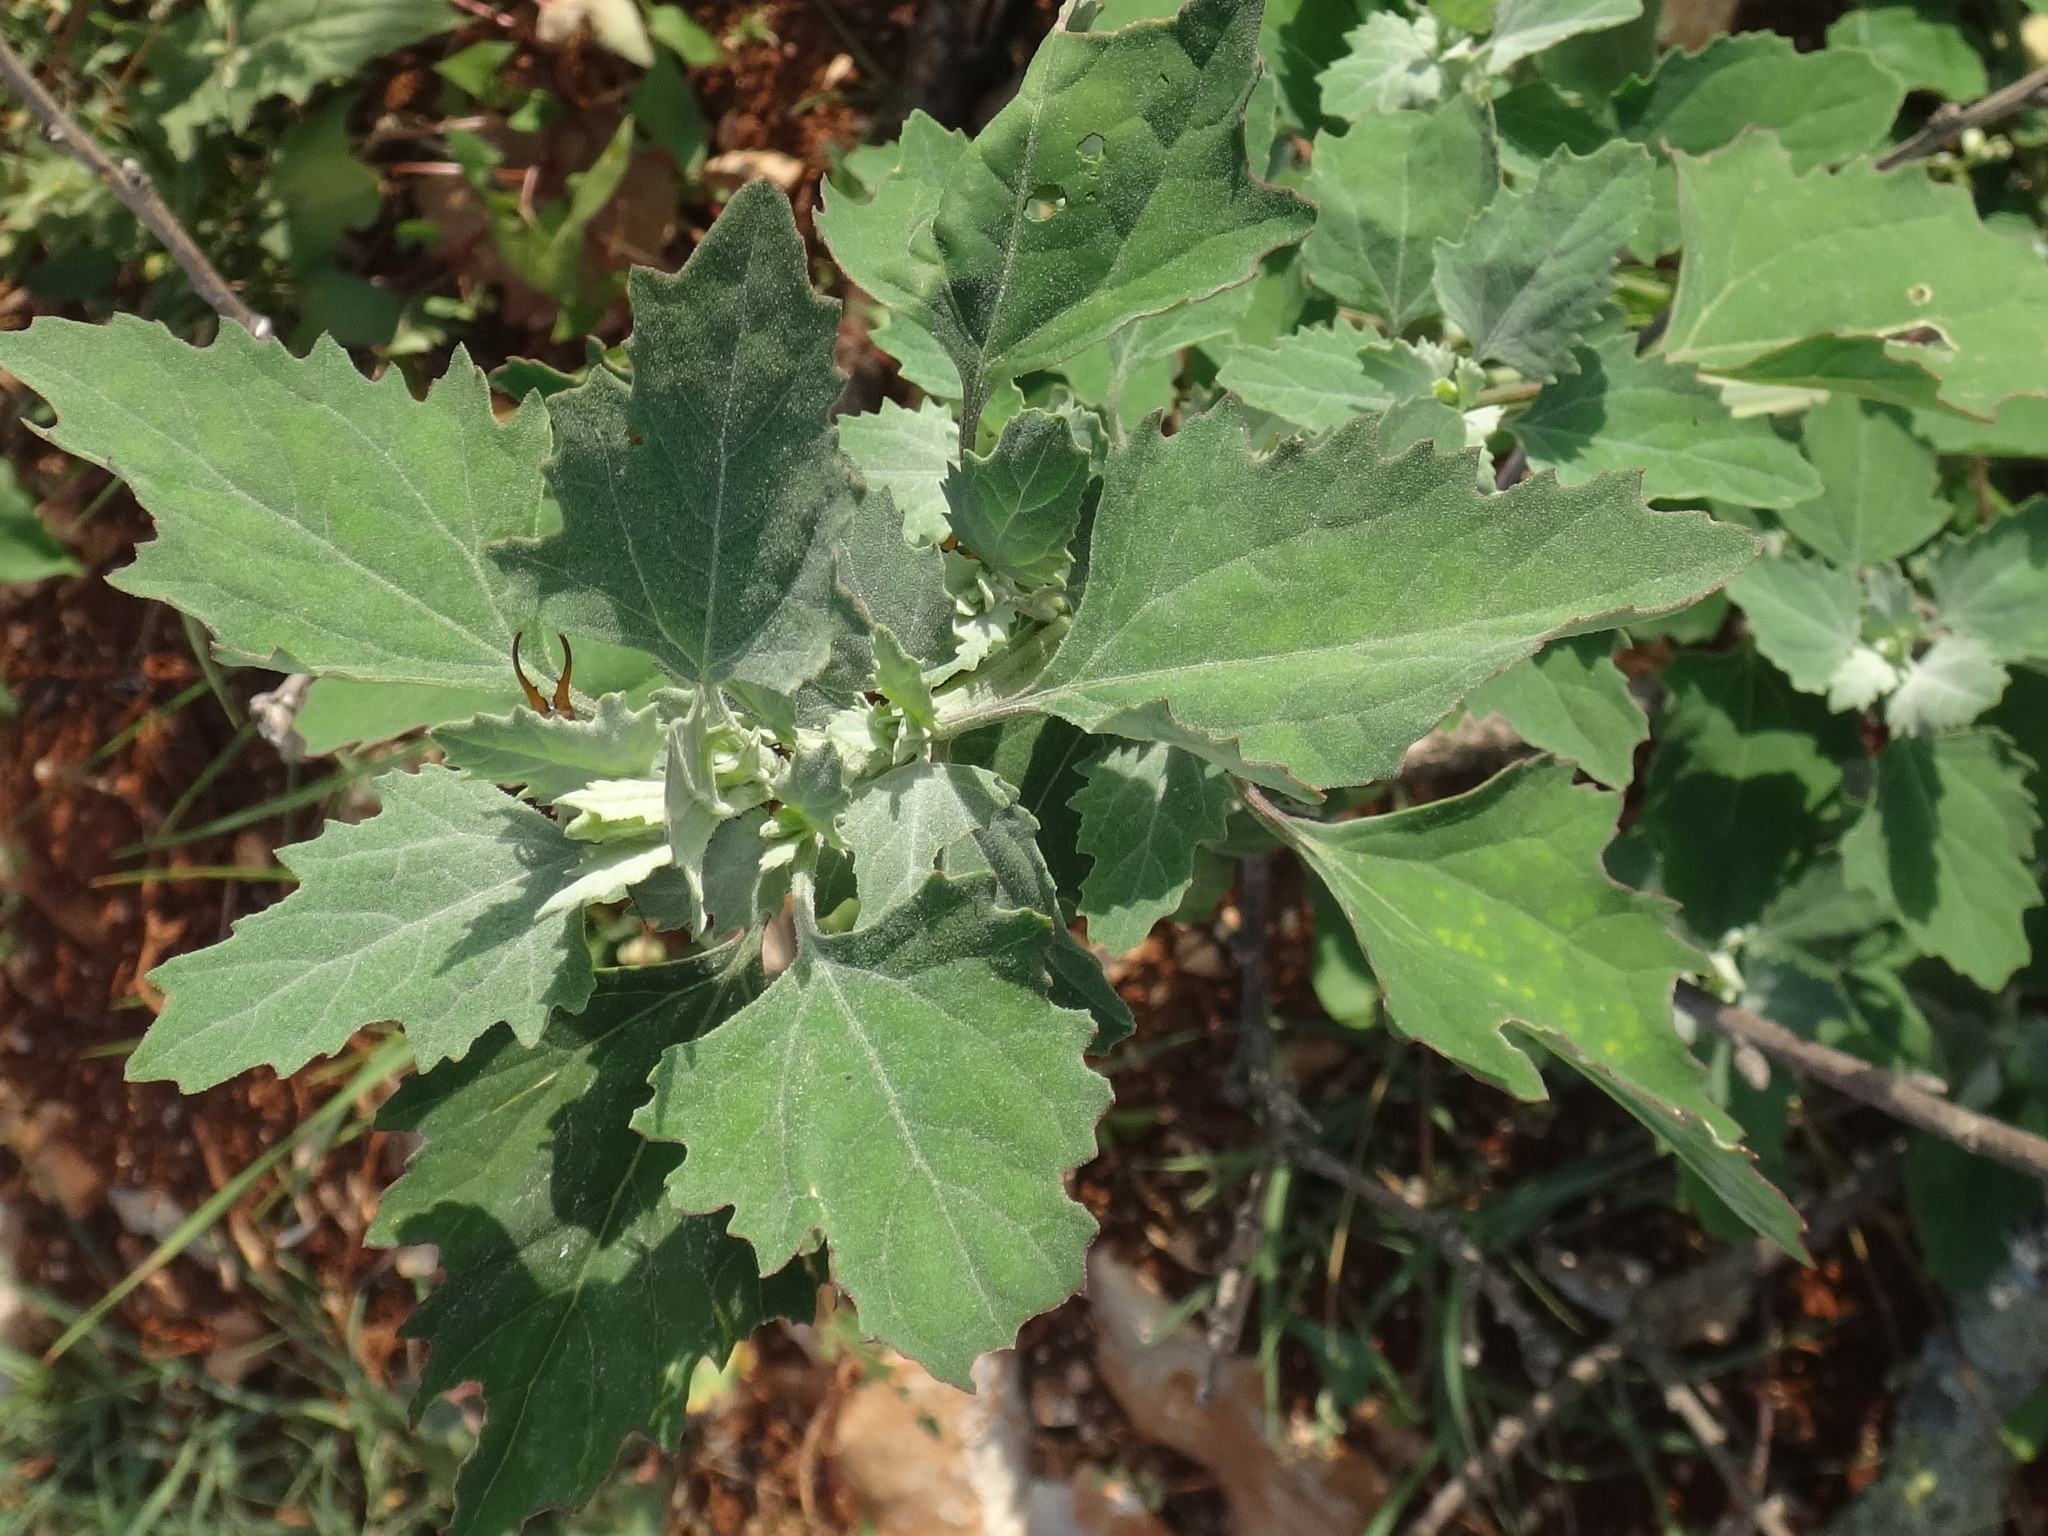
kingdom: Plantae
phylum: Tracheophyta
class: Magnoliopsida
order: Caryophyllales
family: Amaranthaceae
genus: Chenopodium
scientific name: Chenopodium album
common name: Fat-hen
